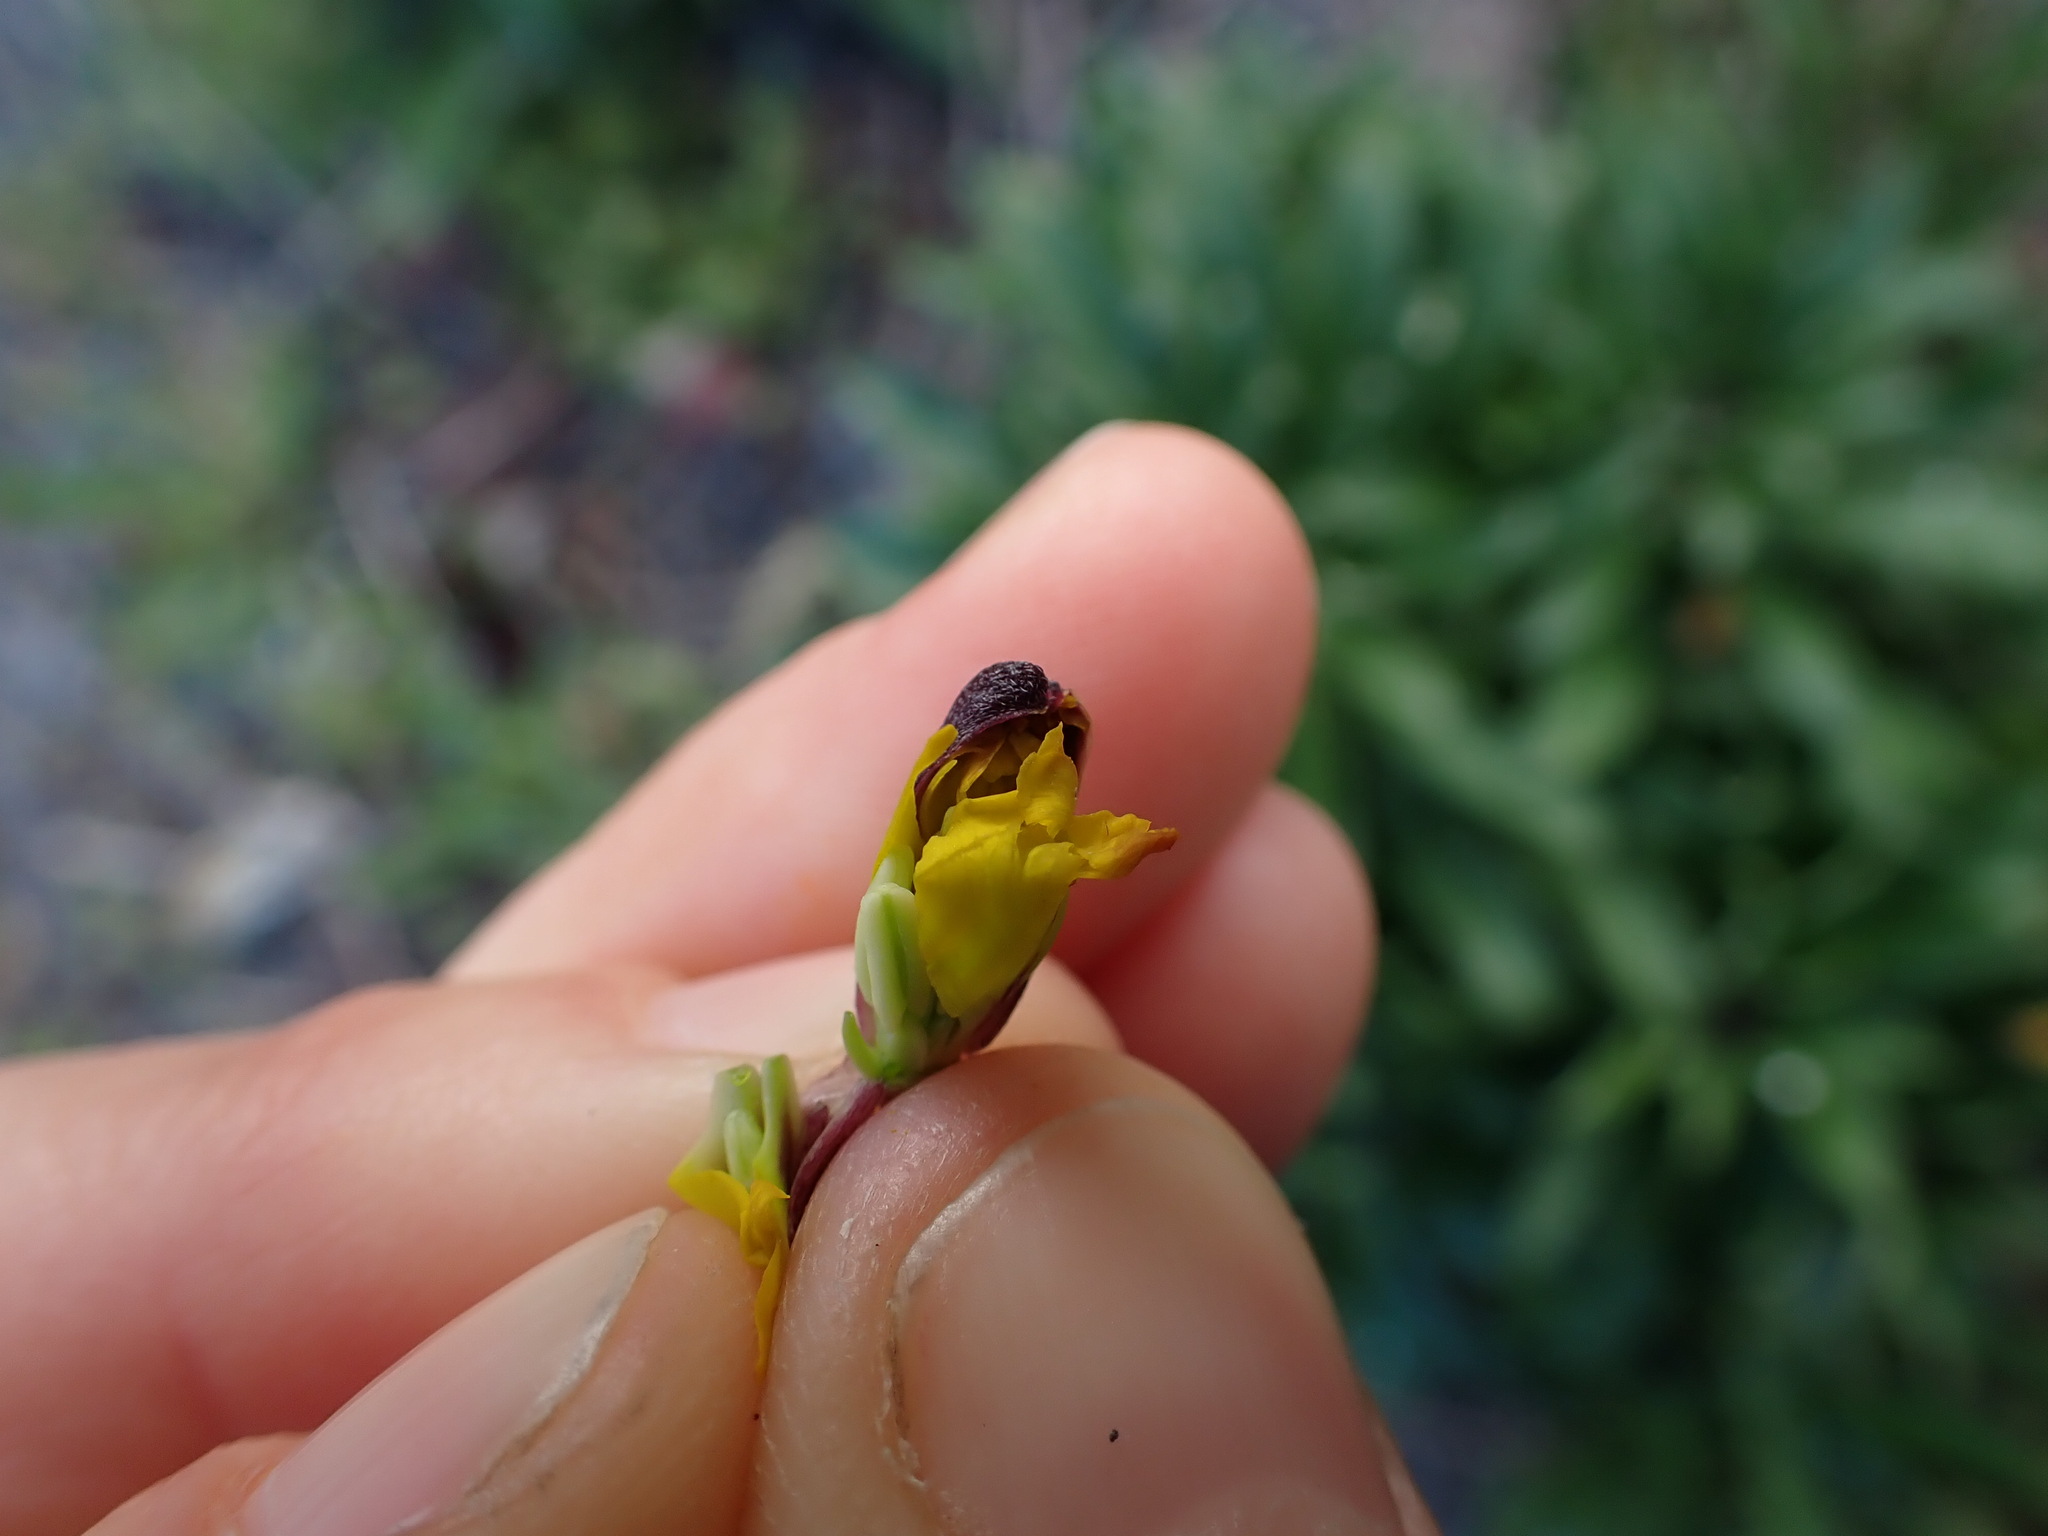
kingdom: Plantae
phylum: Tracheophyta
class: Magnoliopsida
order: Brassicales
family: Brassicaceae
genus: Erysimum
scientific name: Erysimum cheiri
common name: Wallflower
